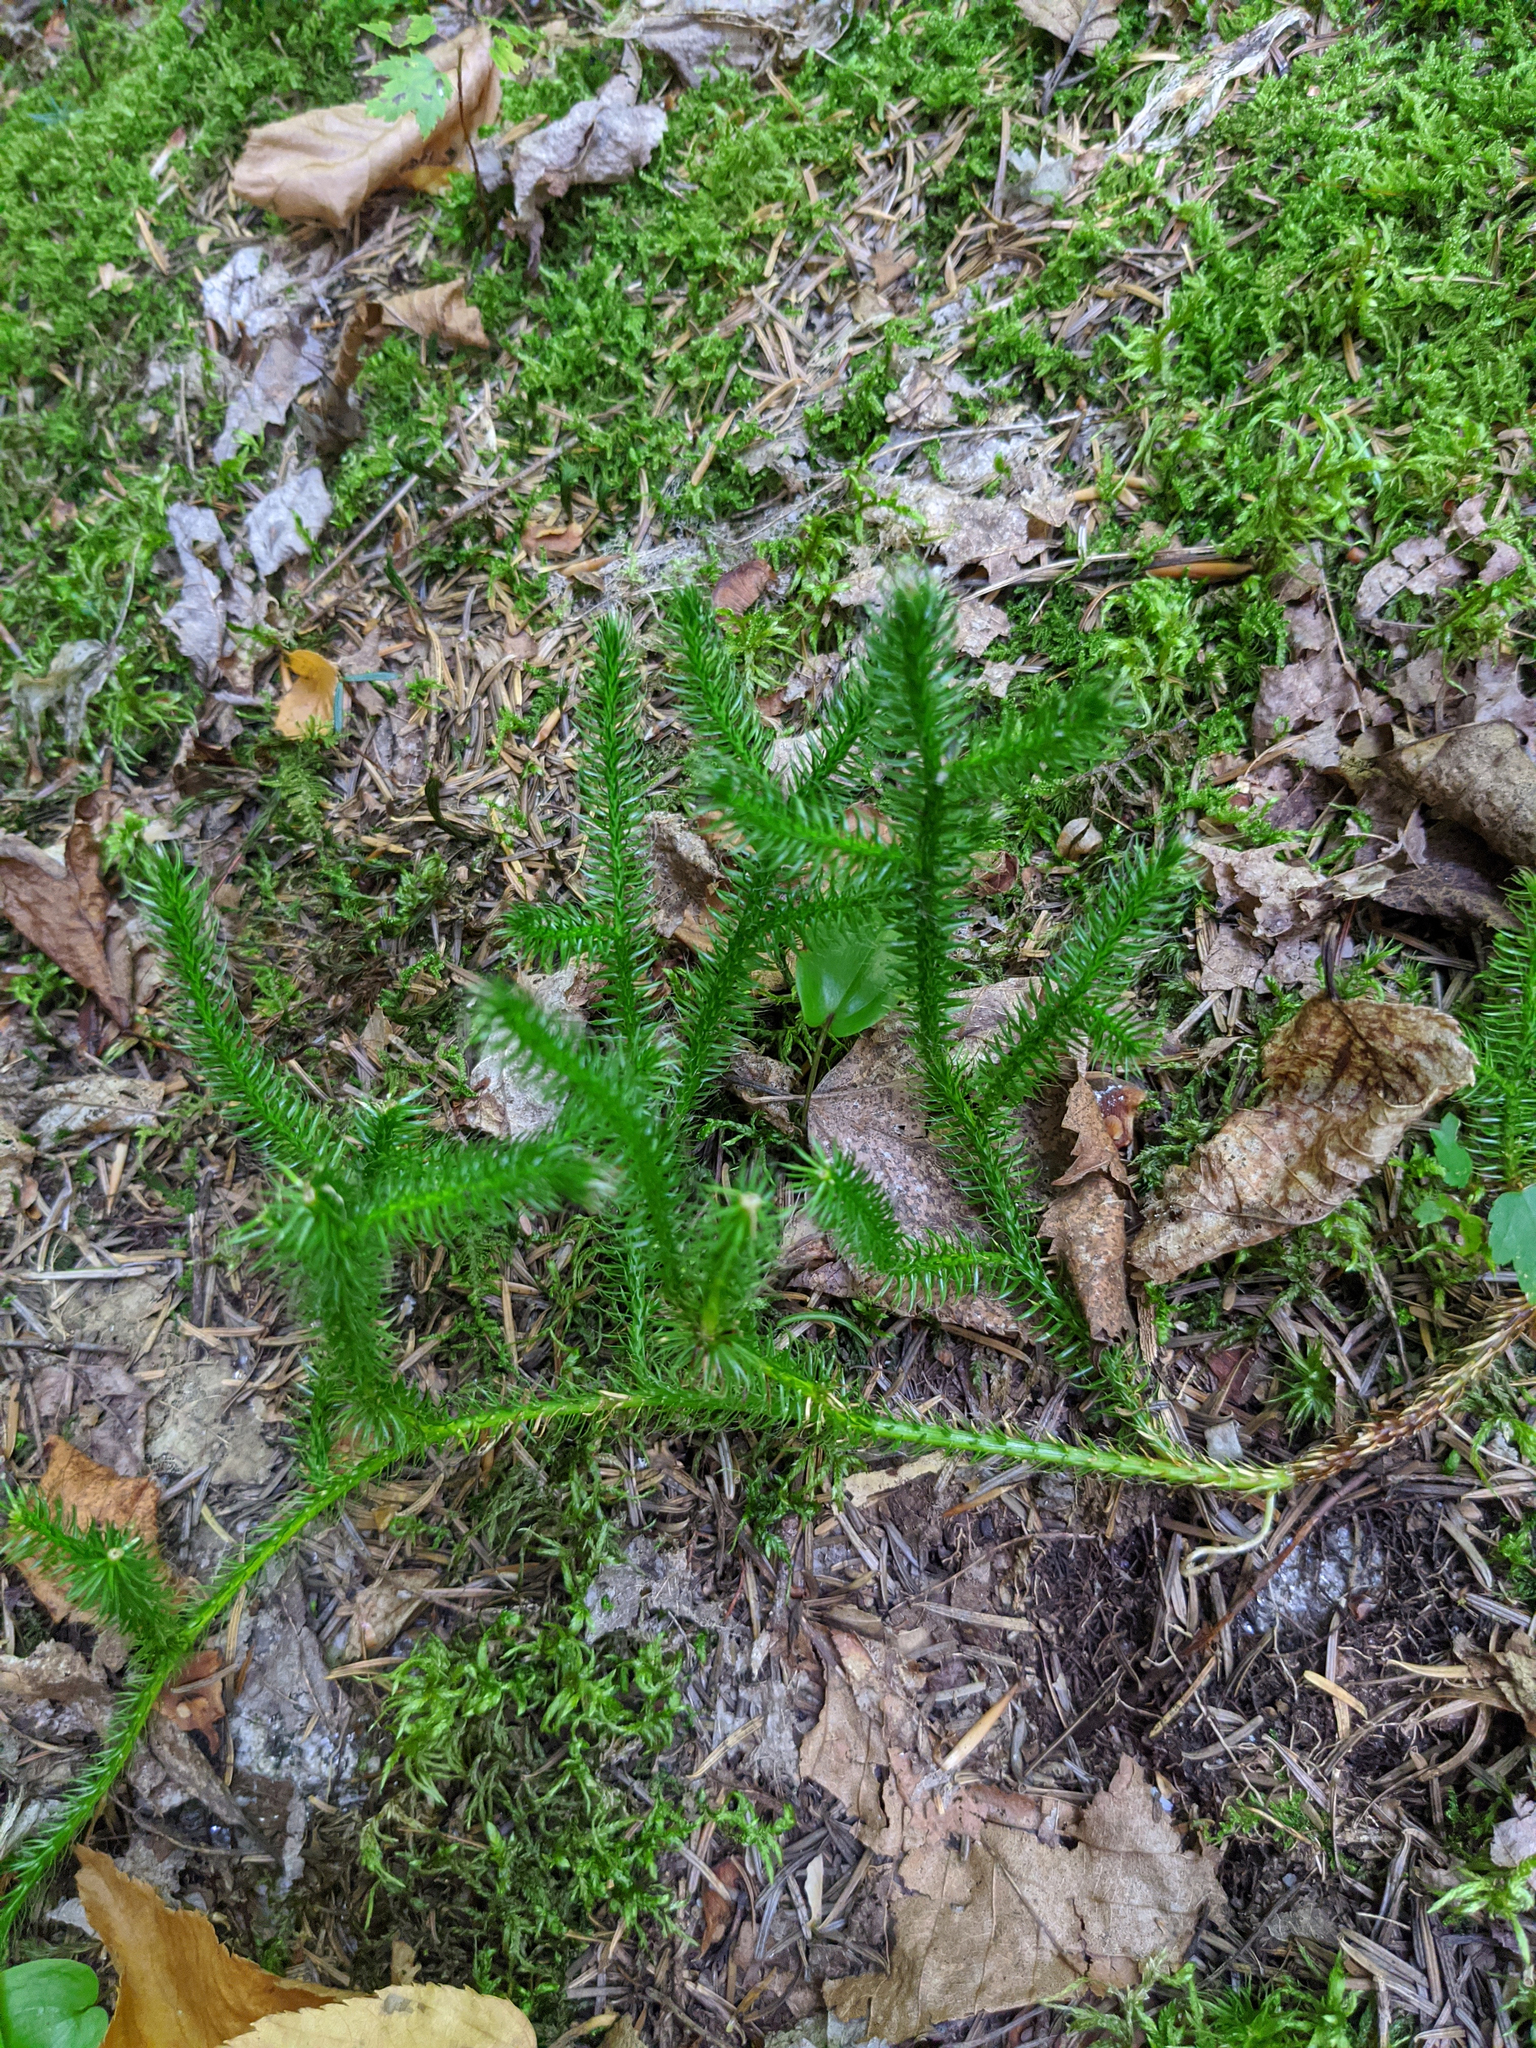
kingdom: Plantae
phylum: Tracheophyta
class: Lycopodiopsida
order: Lycopodiales
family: Lycopodiaceae
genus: Lycopodium
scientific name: Lycopodium clavatum
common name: Stag's-horn clubmoss
